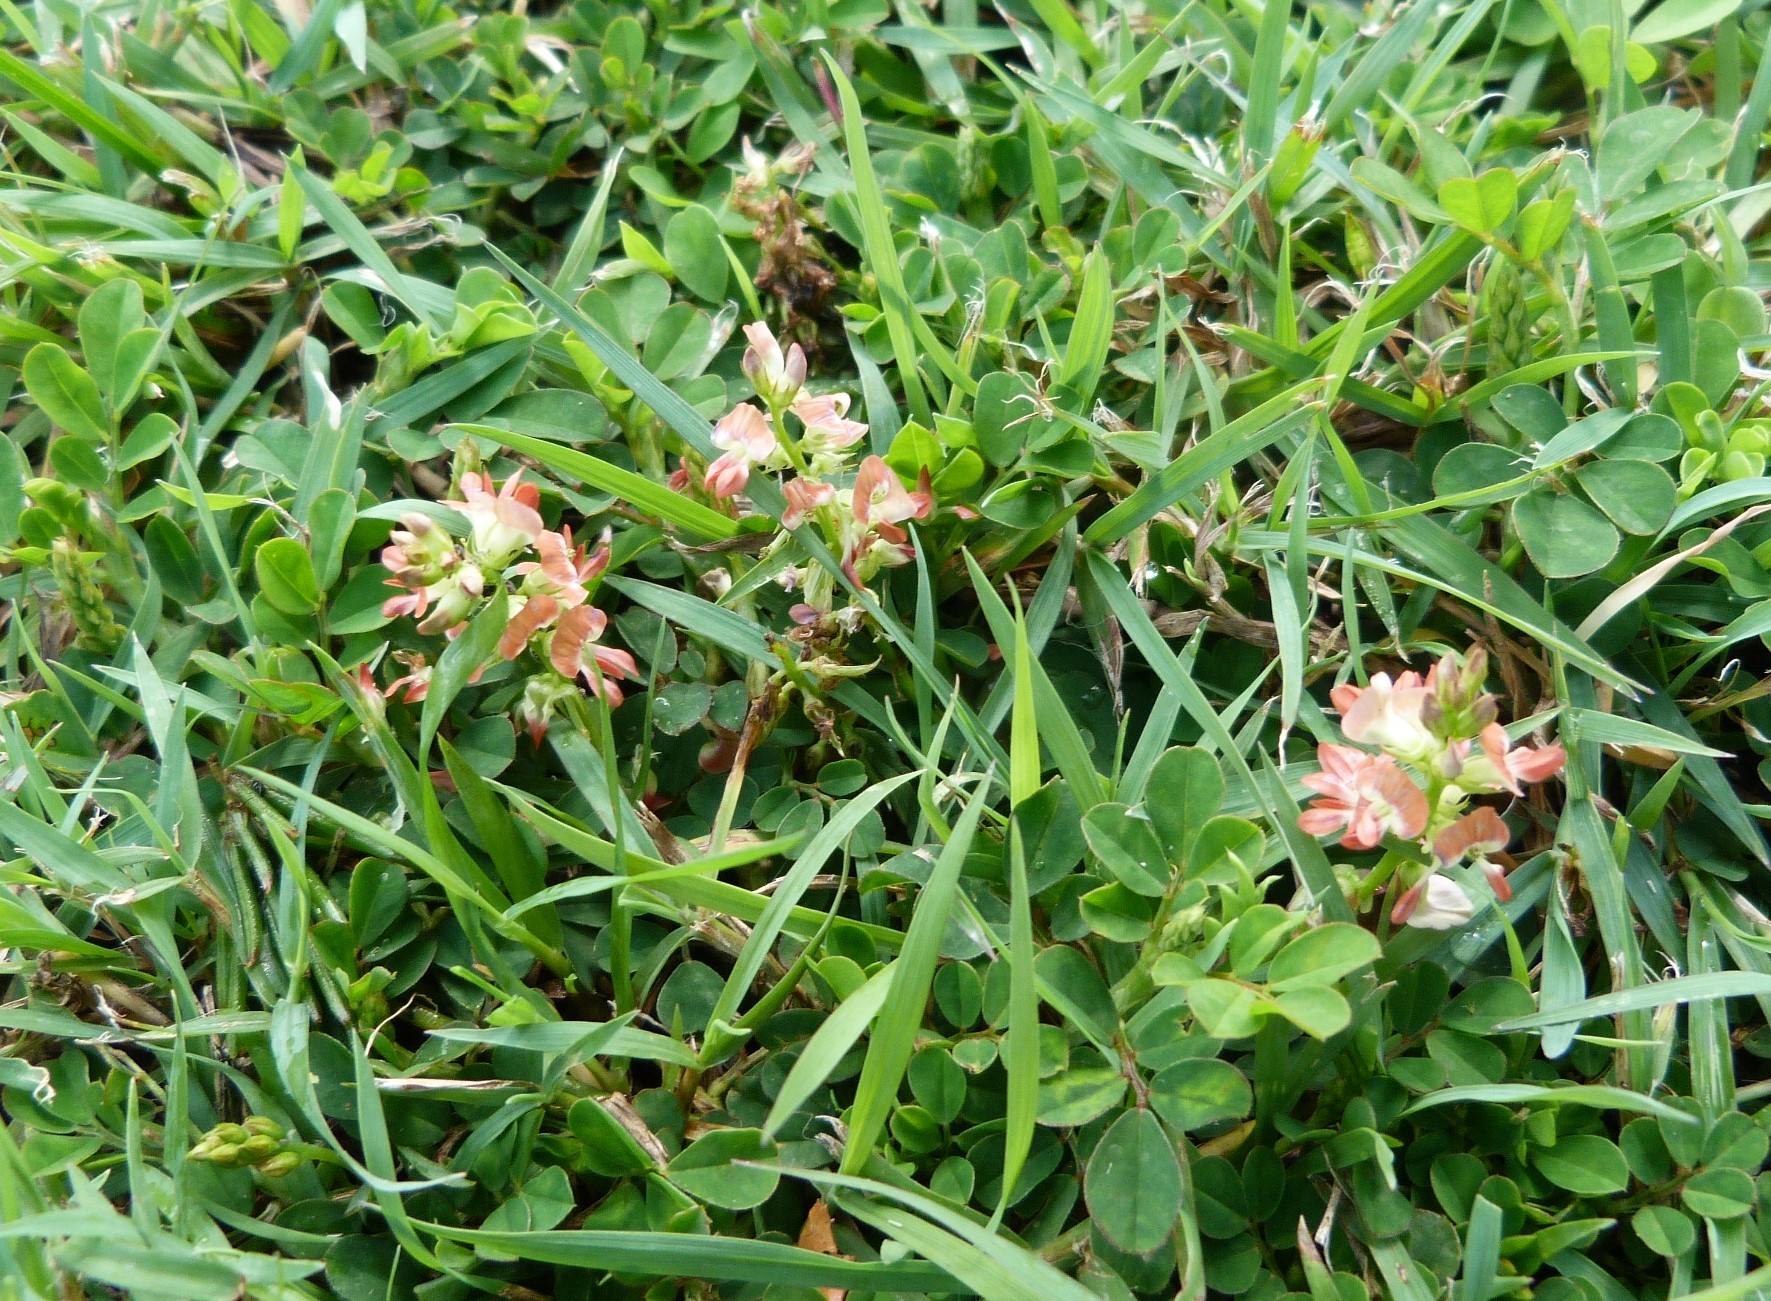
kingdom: Plantae
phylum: Tracheophyta
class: Magnoliopsida
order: Fabales
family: Fabaceae
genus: Indigofera
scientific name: Indigofera spicata
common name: Creeping indigo
